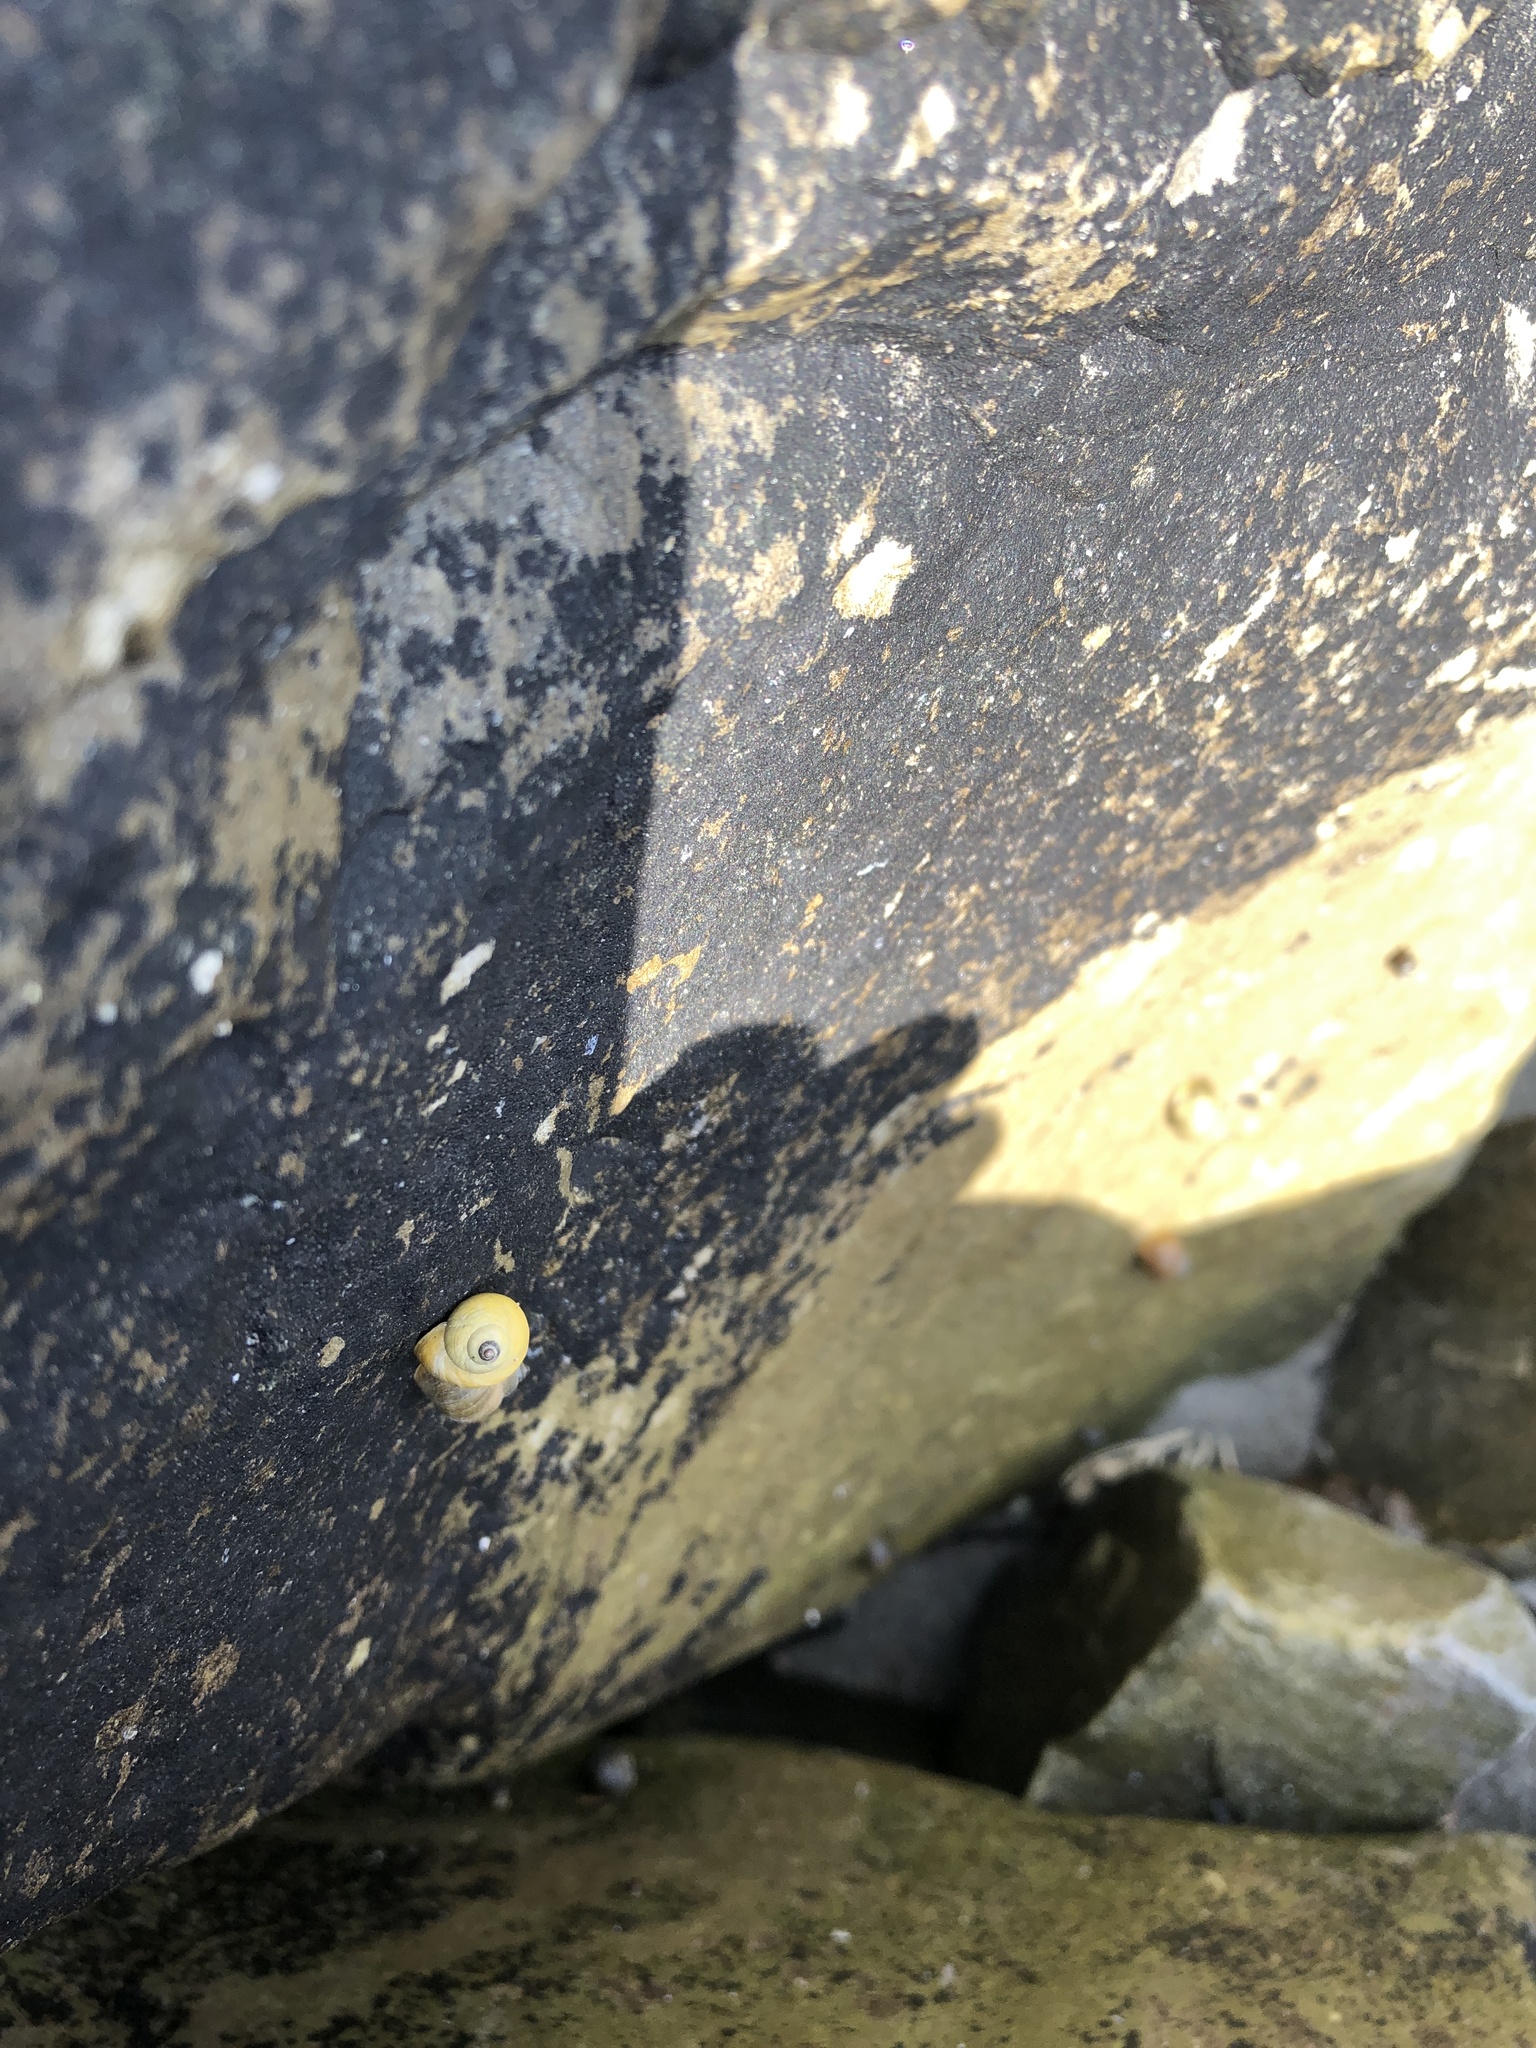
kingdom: Animalia
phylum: Mollusca
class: Gastropoda
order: Littorinimorpha
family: Littorinidae
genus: Littorina
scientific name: Littorina saxatilis
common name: Black-lined periwinkle
